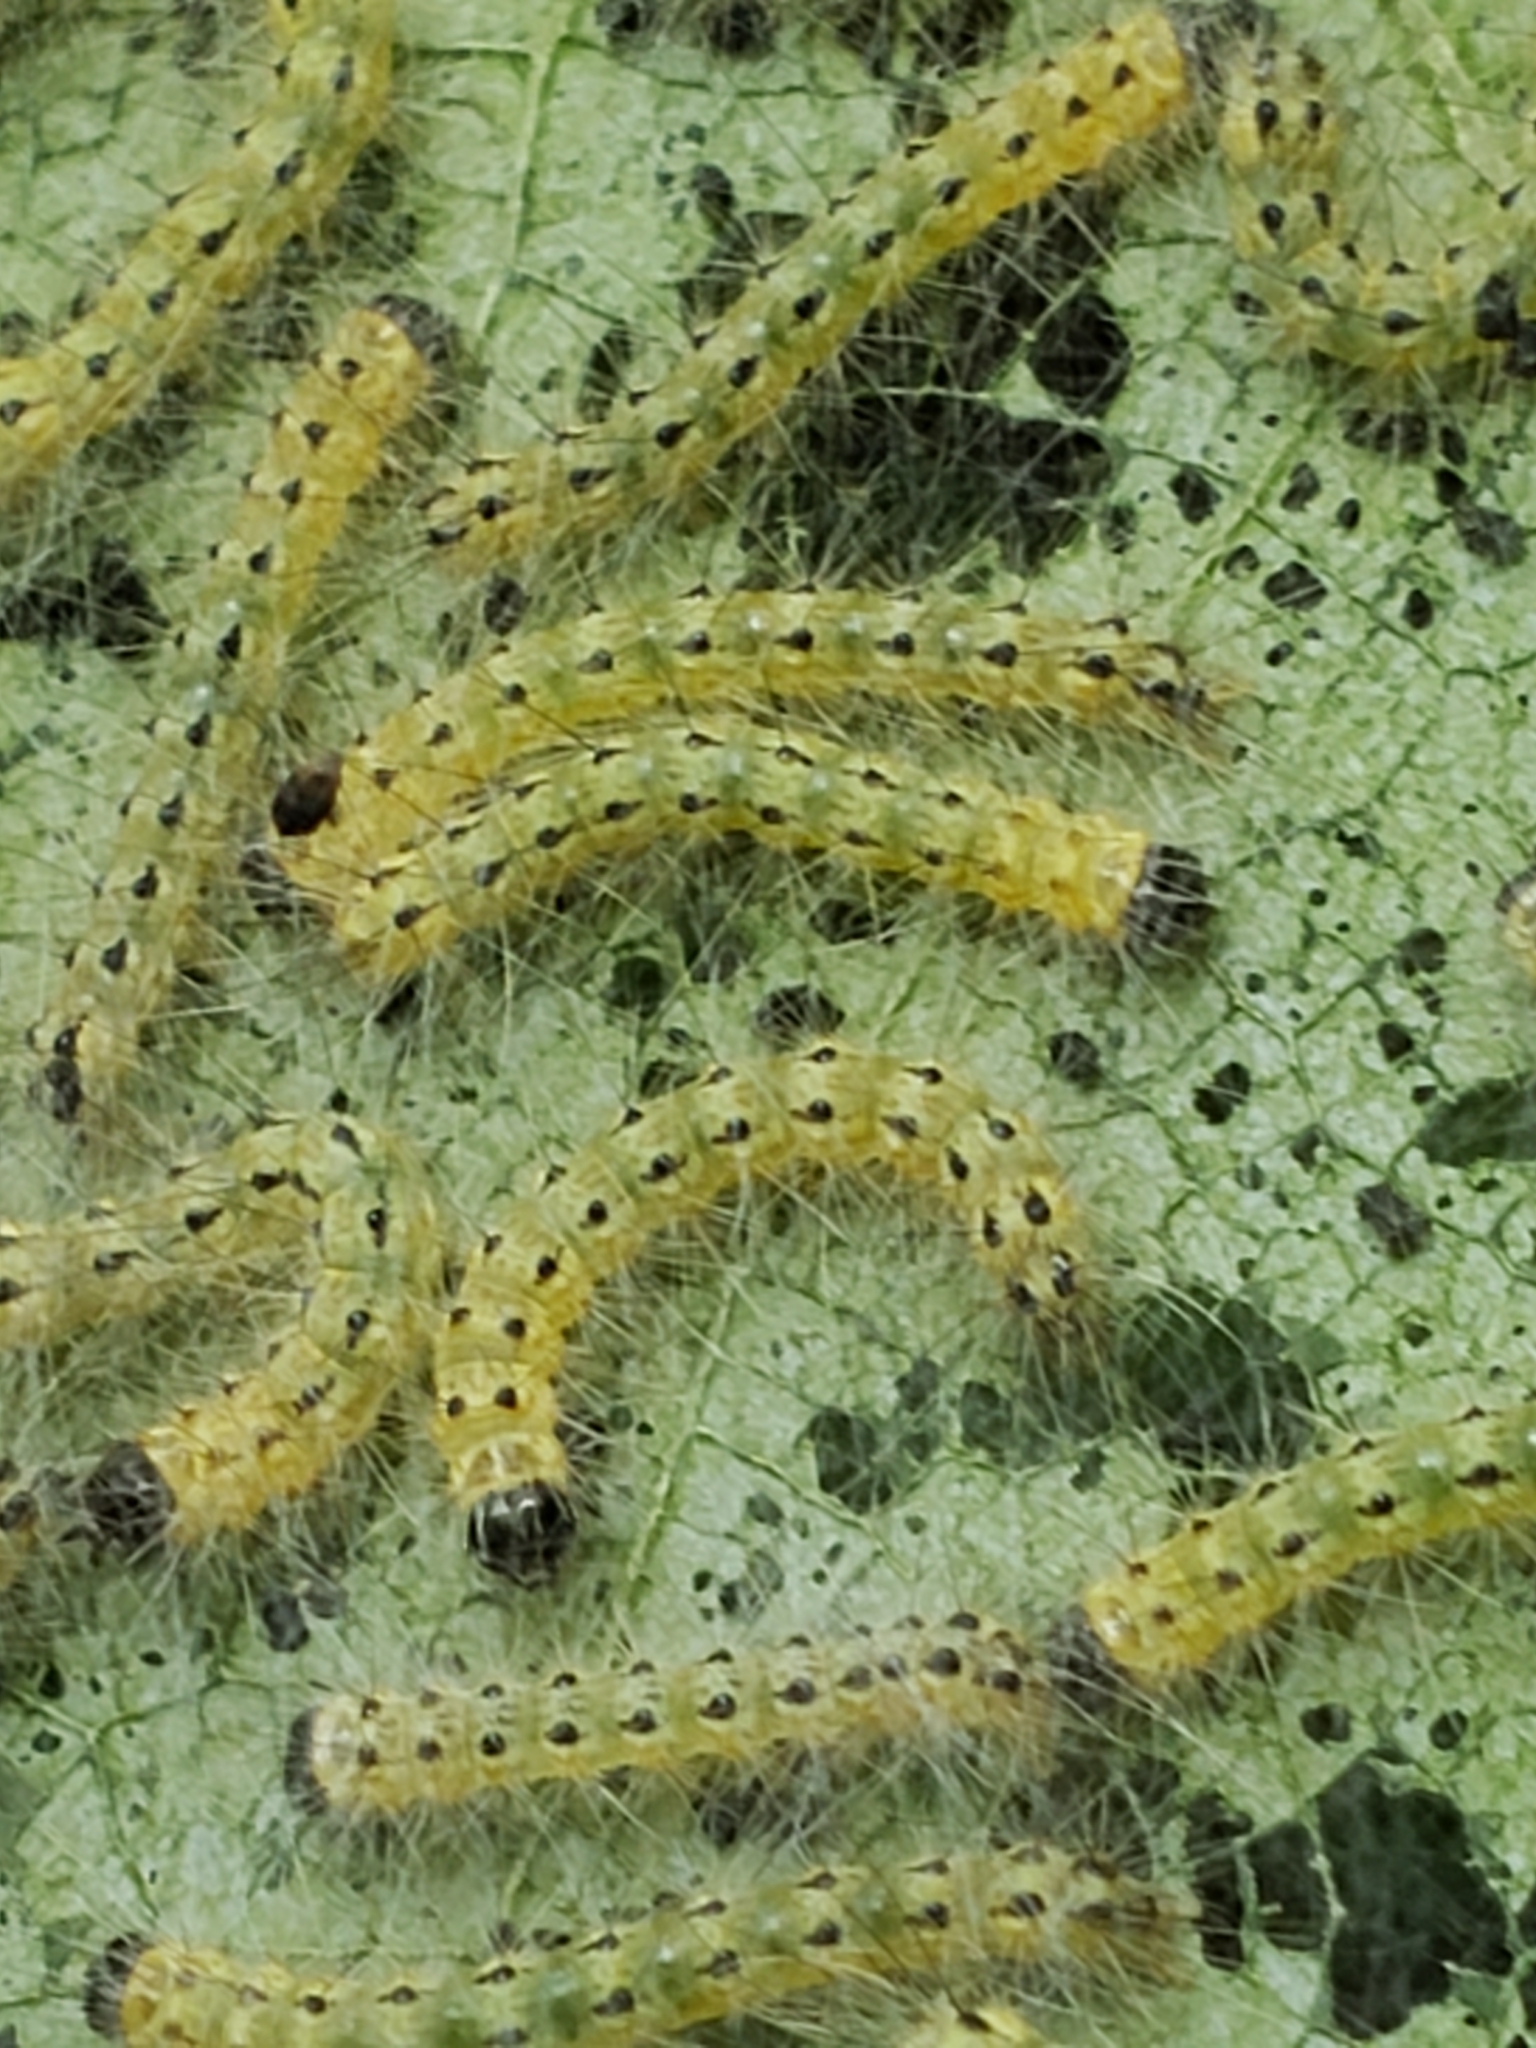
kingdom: Animalia
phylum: Arthropoda
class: Insecta
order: Lepidoptera
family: Erebidae
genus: Hyphantria
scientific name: Hyphantria cunea
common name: American white moth
